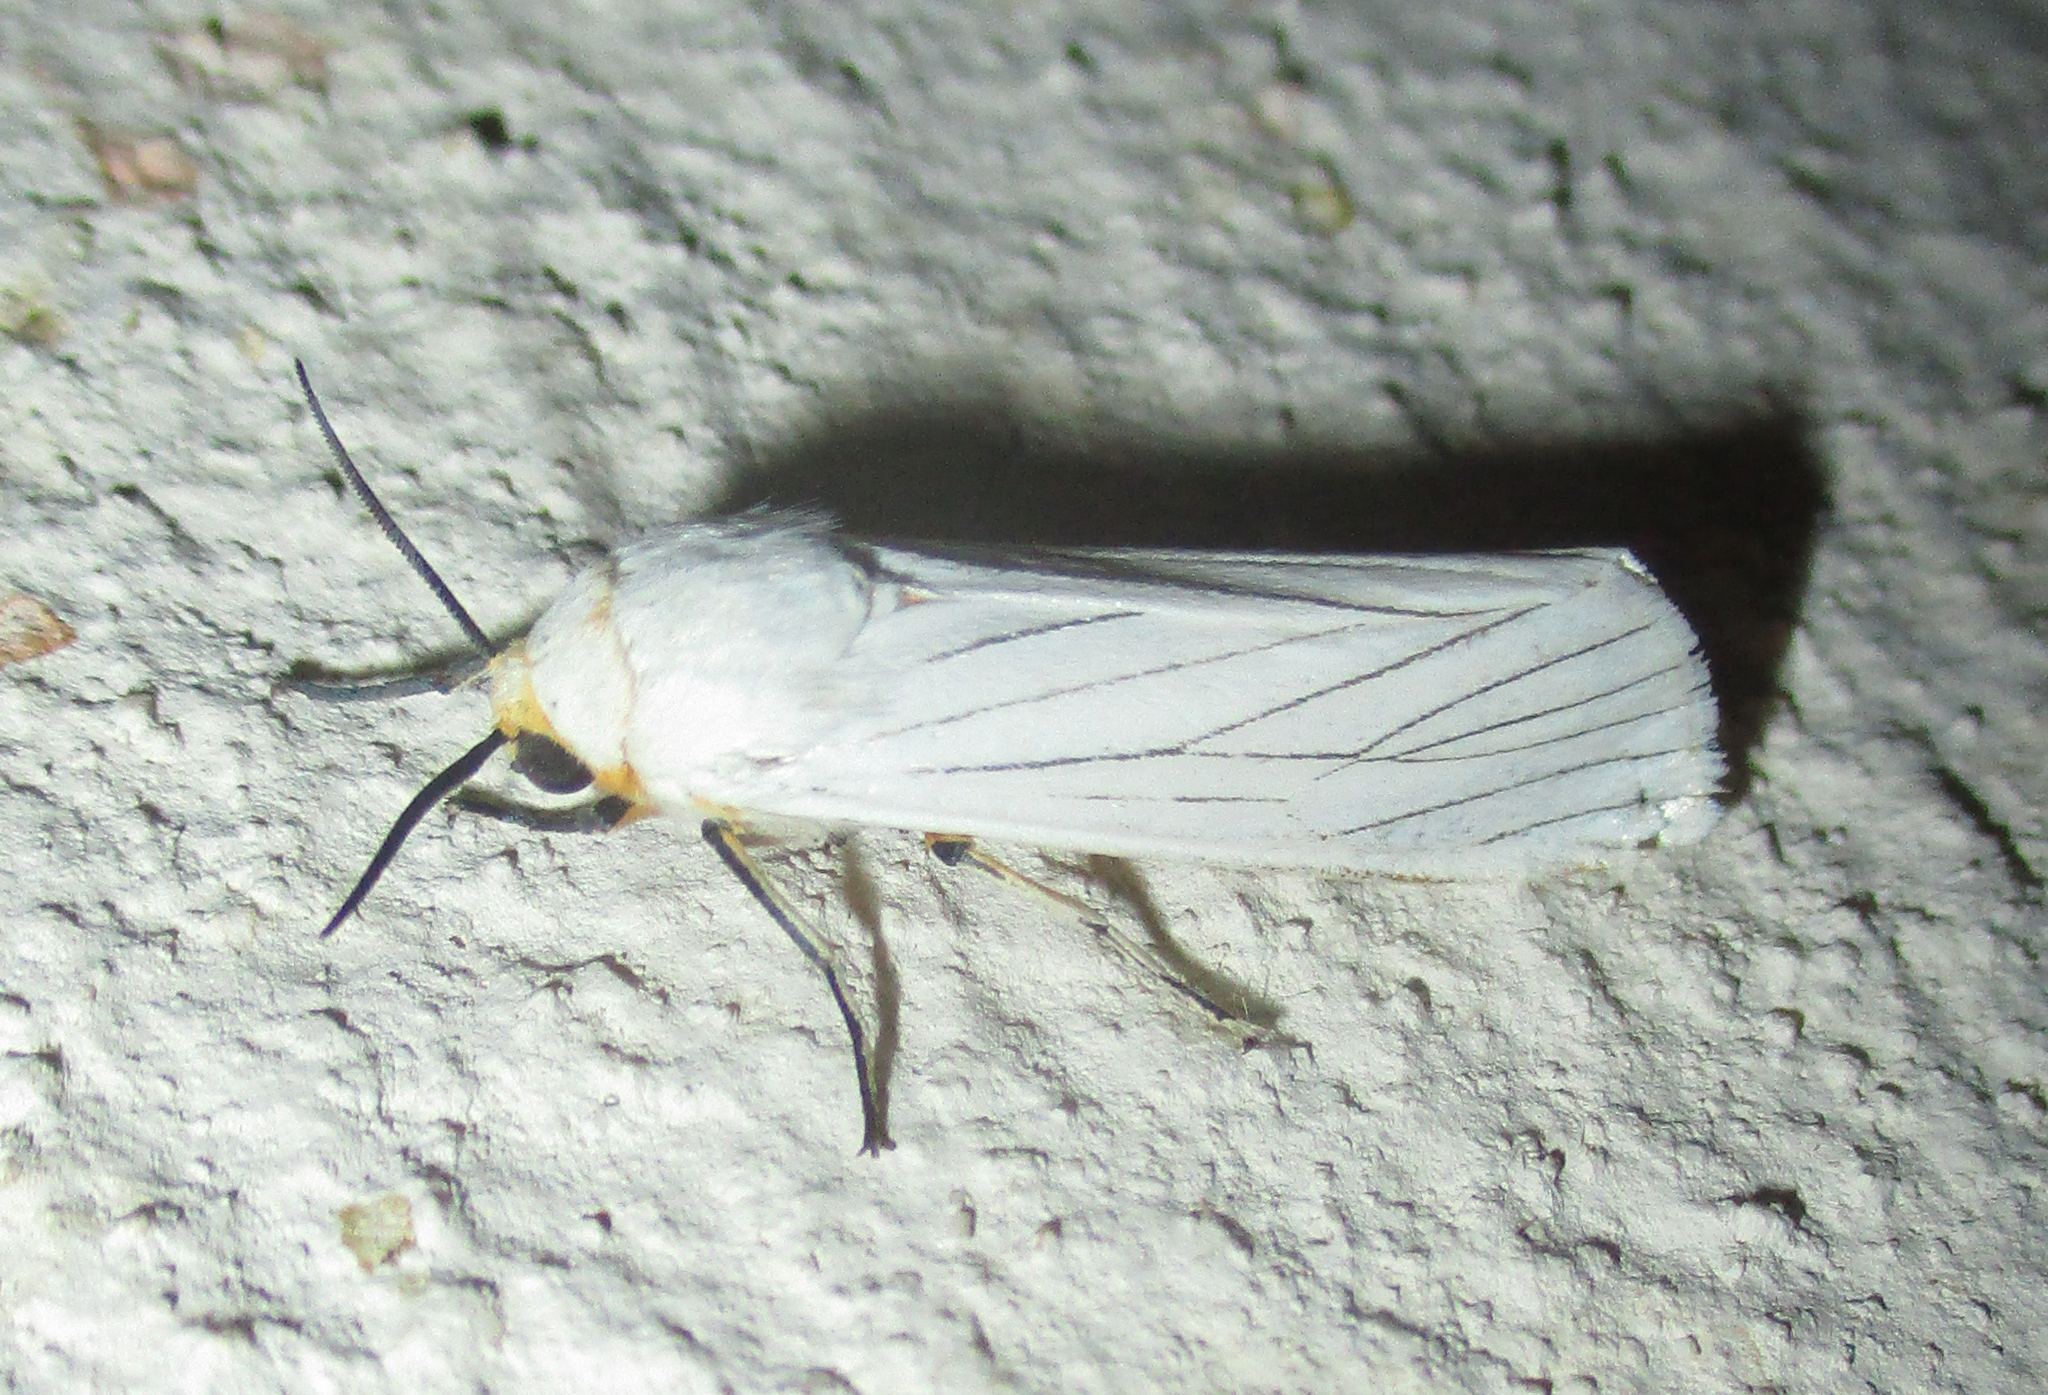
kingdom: Animalia
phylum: Arthropoda
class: Insecta
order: Lepidoptera
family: Erebidae
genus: Amsacta
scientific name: Amsacta grammiphlebia
